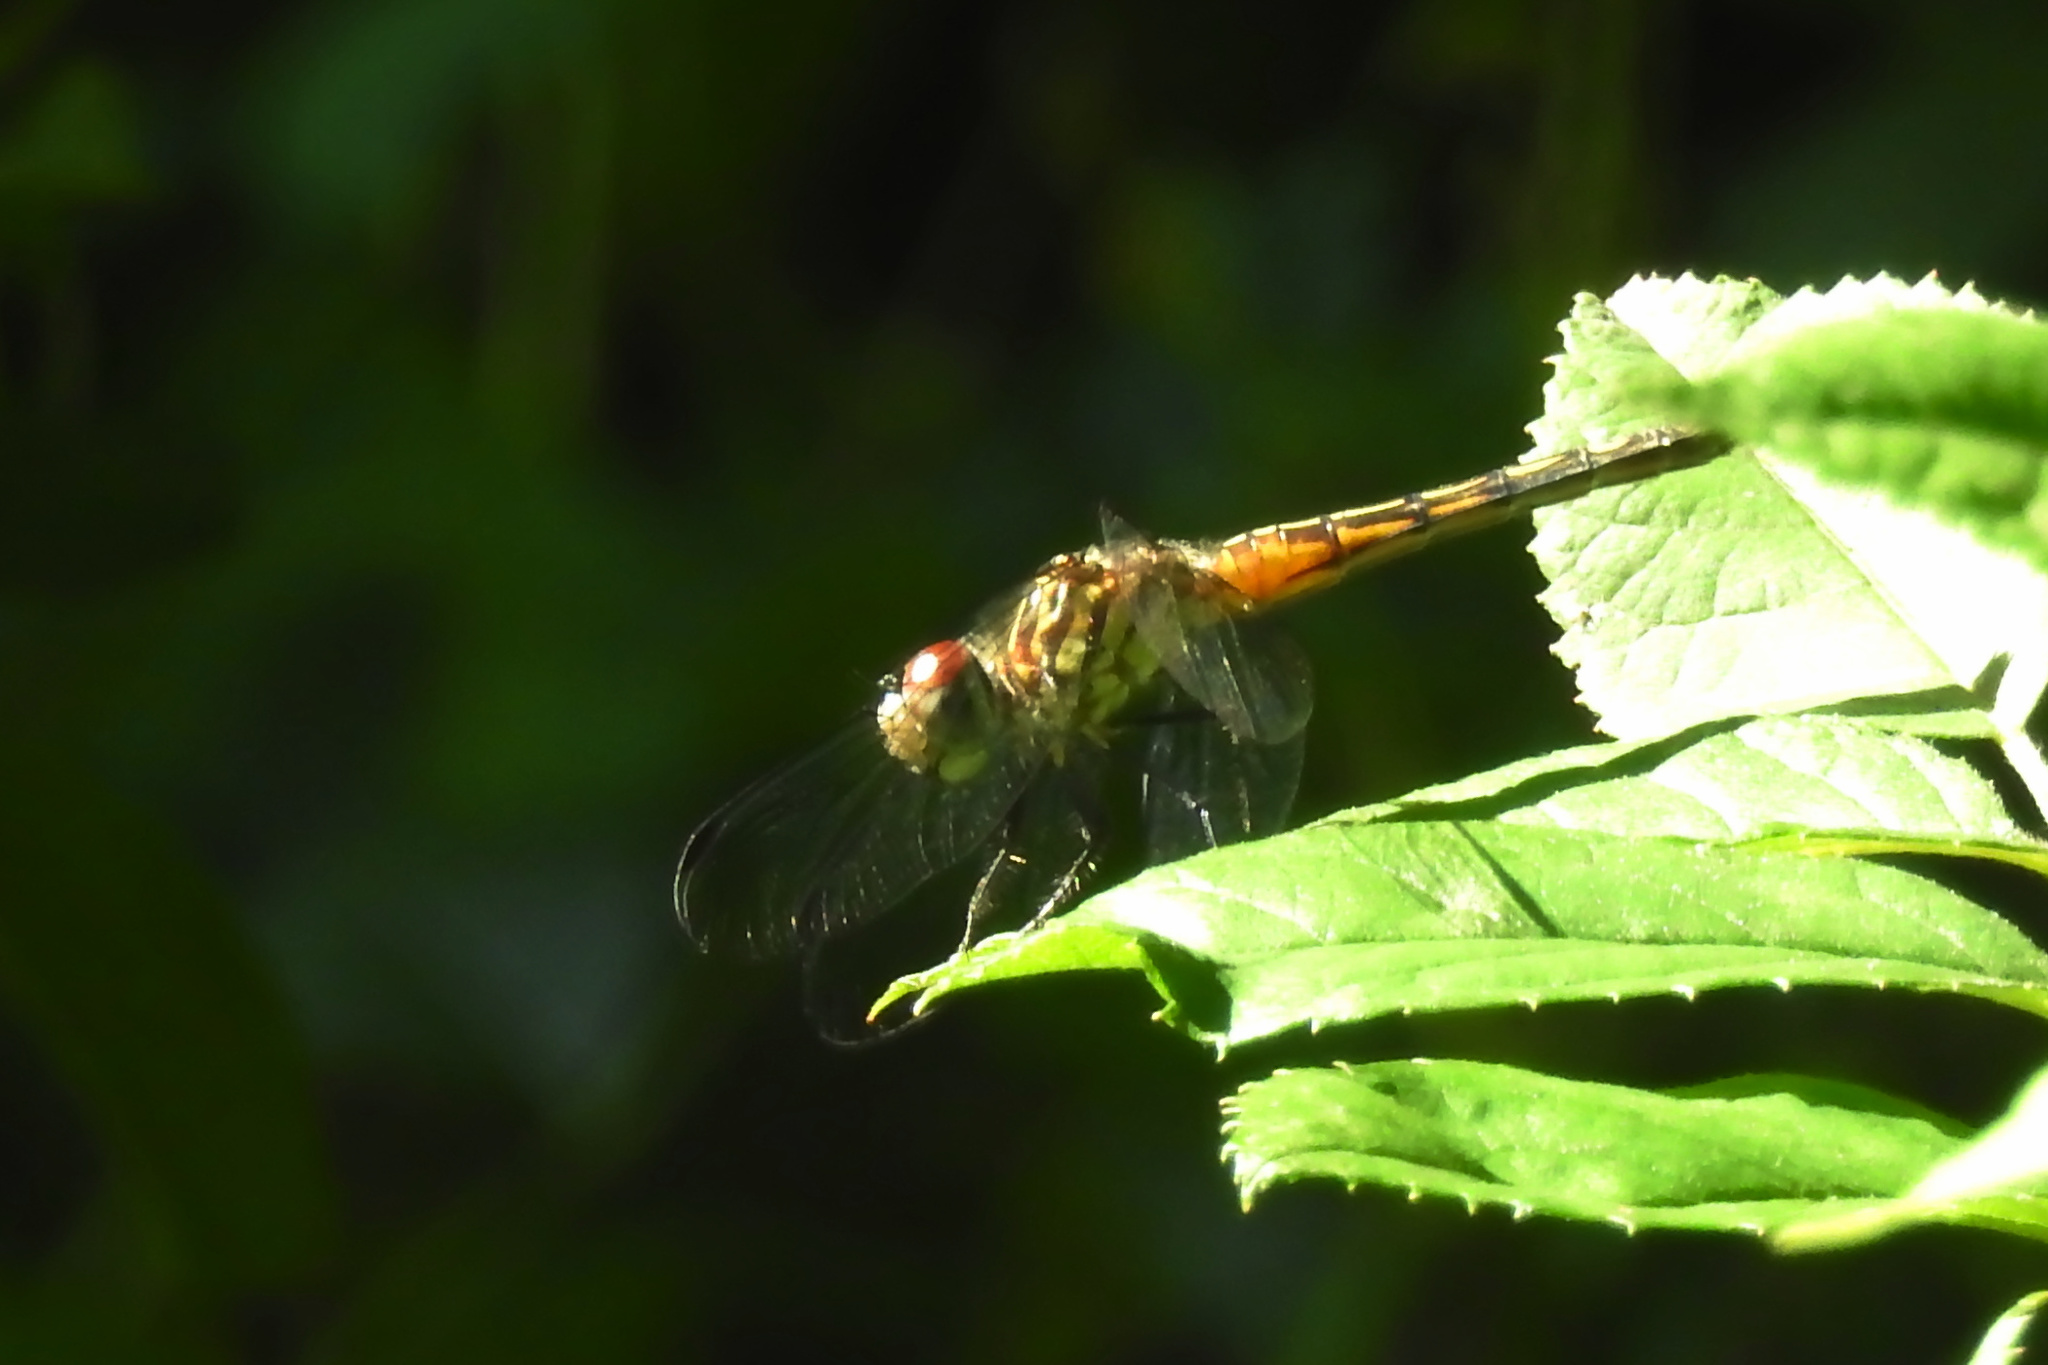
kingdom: Animalia
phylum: Arthropoda
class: Insecta
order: Odonata
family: Libellulidae
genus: Pachydiplax
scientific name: Pachydiplax longipennis
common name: Blue dasher
